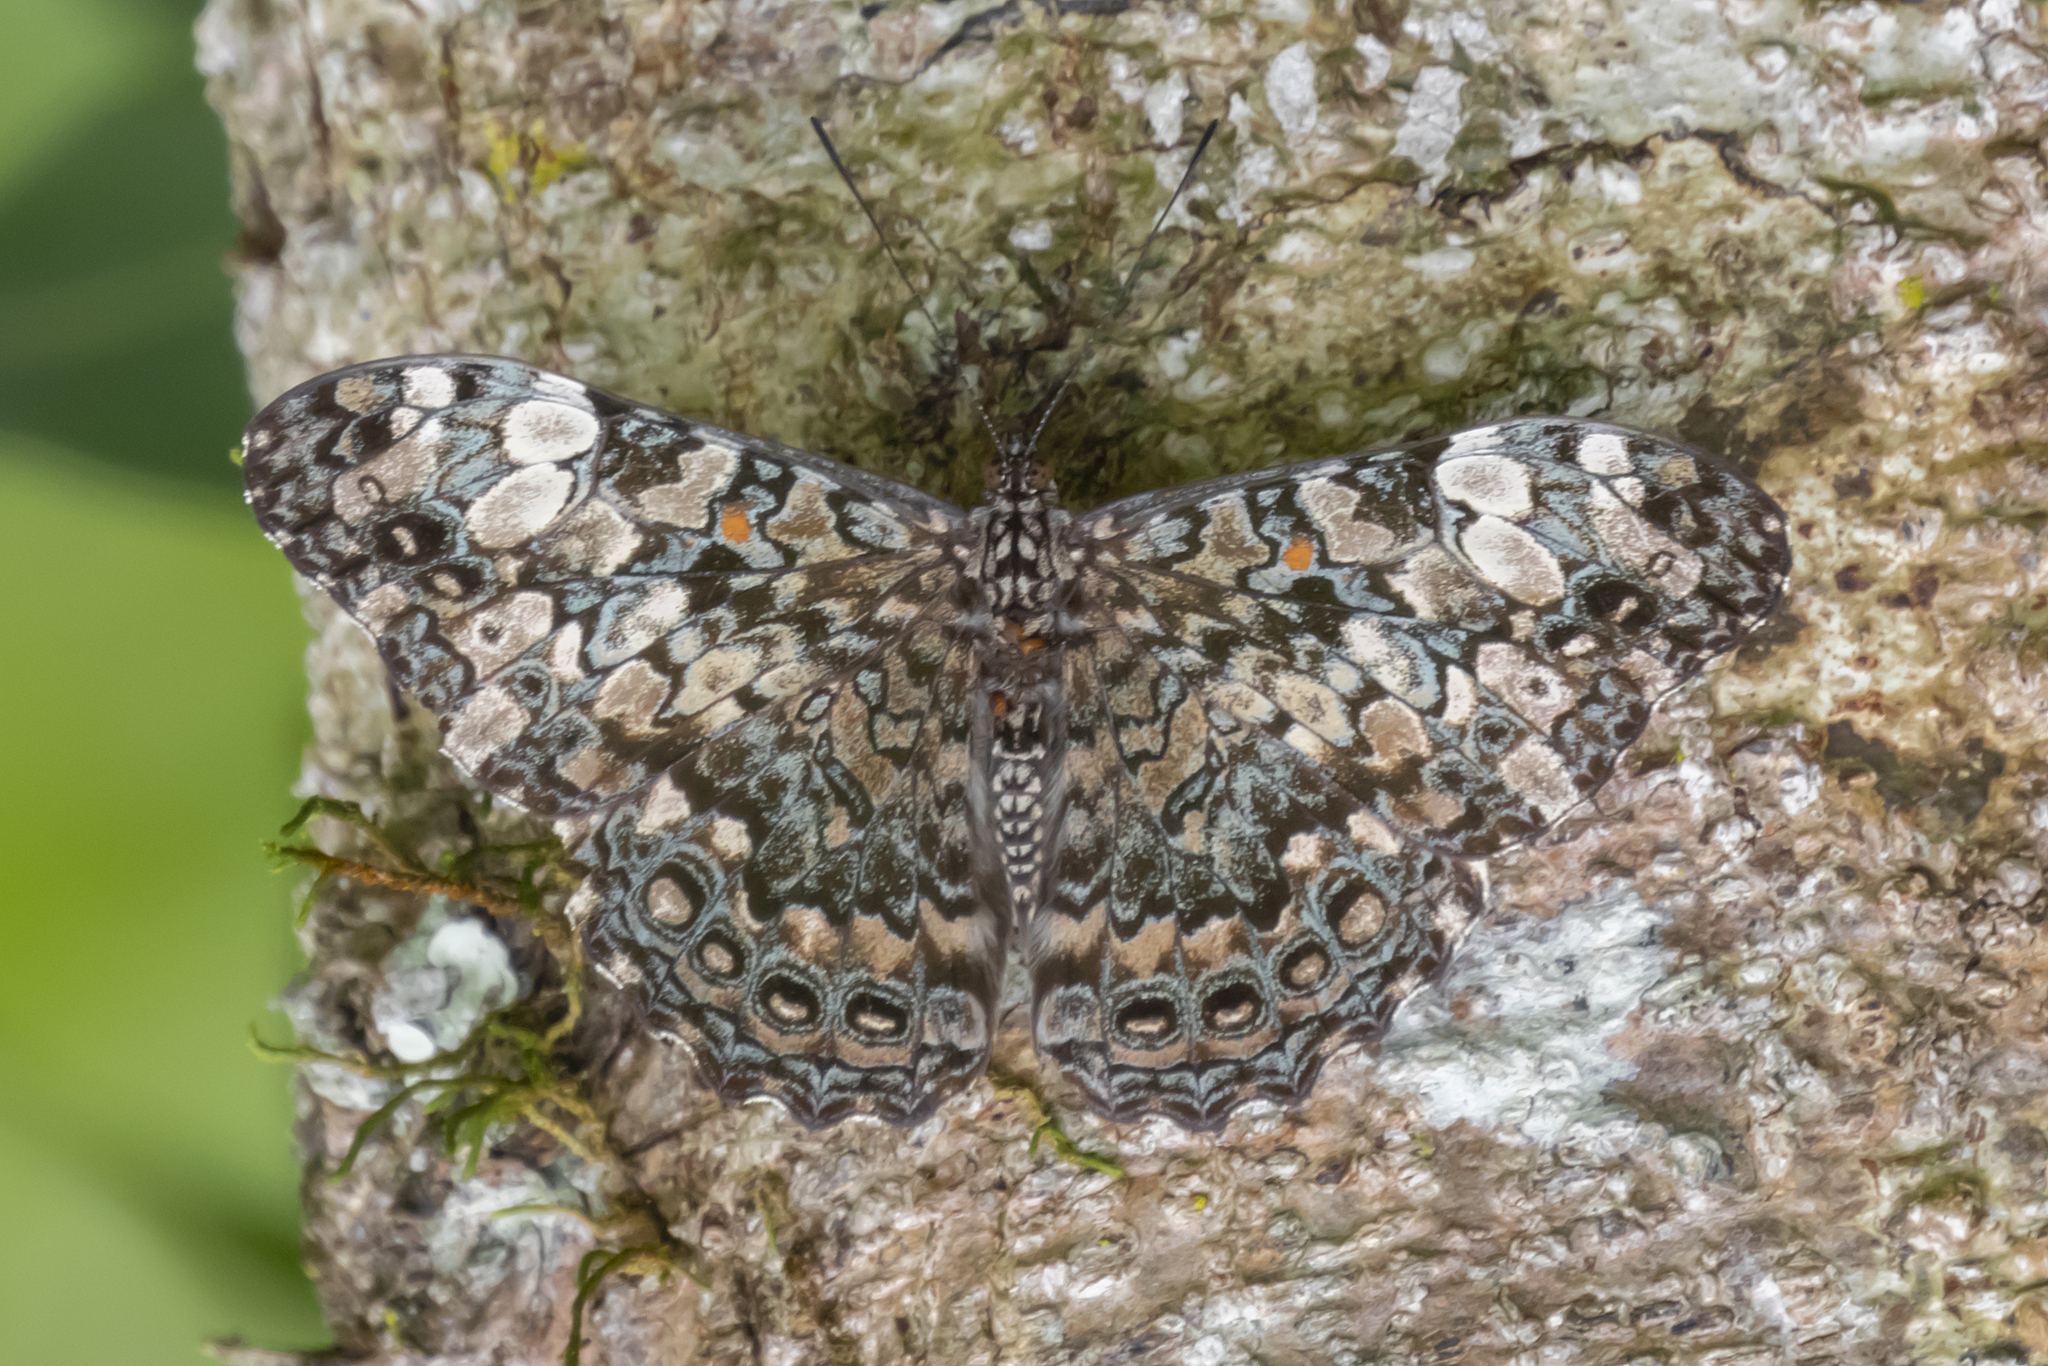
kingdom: Animalia
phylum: Arthropoda
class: Insecta
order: Lepidoptera
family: Nymphalidae
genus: Hamadryas
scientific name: Hamadryas epinome
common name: Epinome cracker
